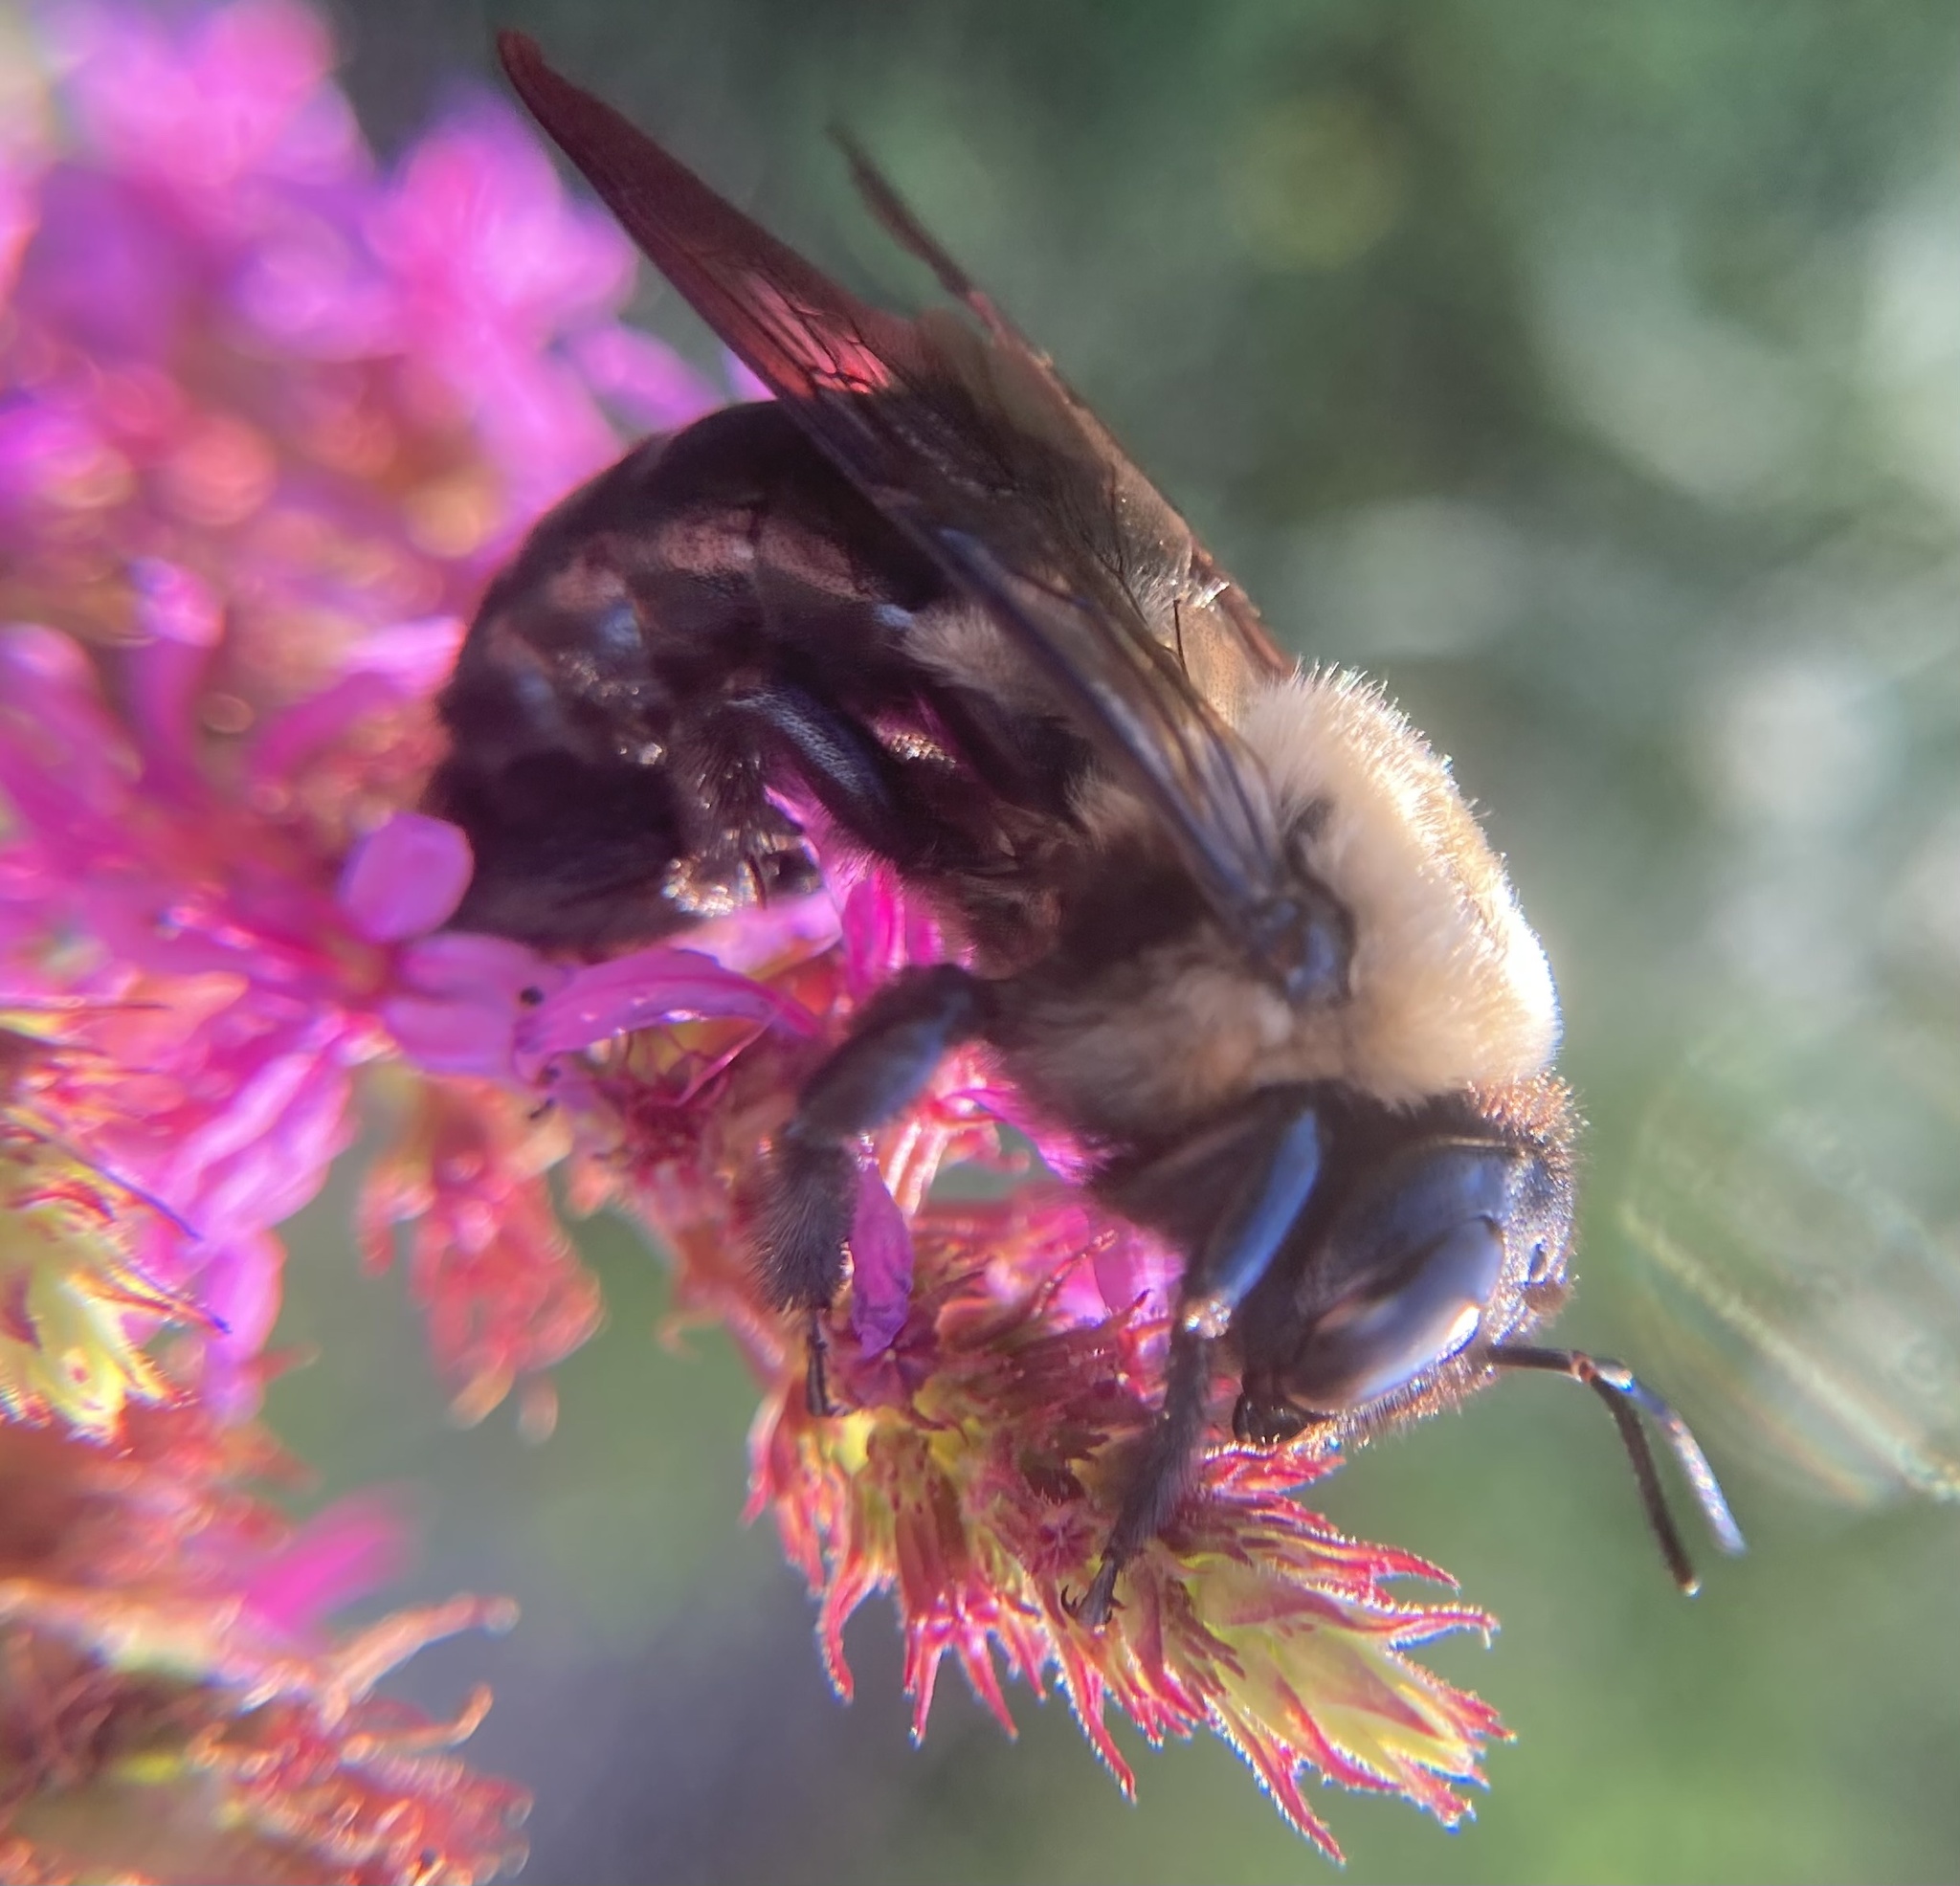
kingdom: Animalia
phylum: Arthropoda
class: Insecta
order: Hymenoptera
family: Apidae
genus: Xylocopa
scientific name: Xylocopa virginica
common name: Carpenter bee
